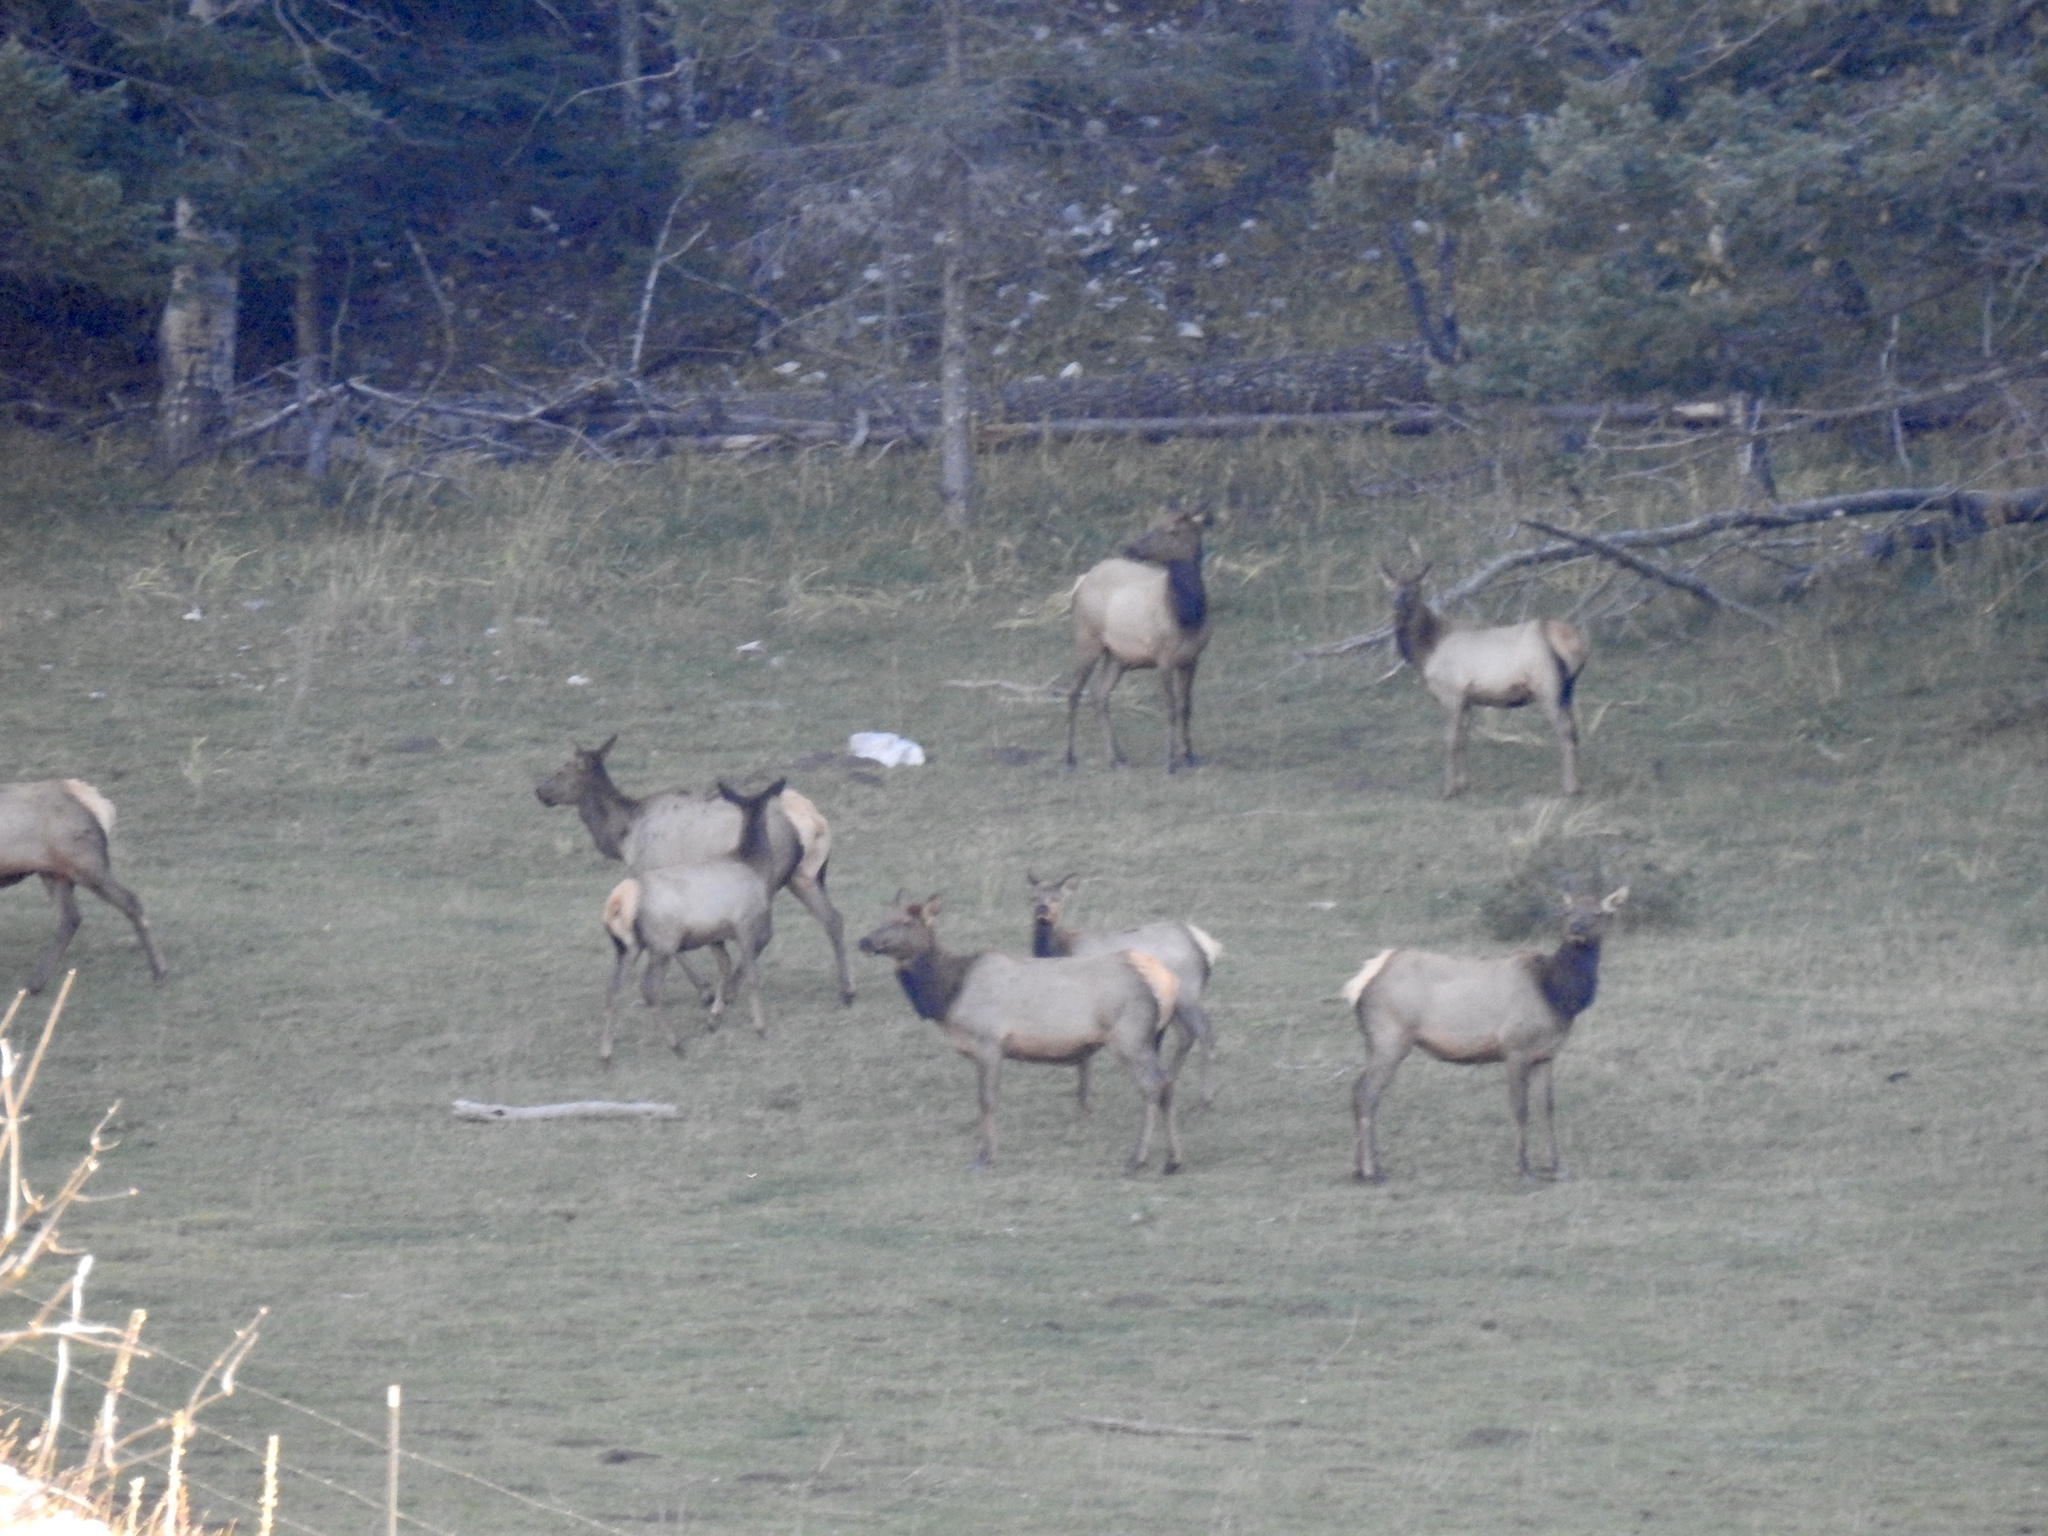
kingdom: Animalia
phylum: Chordata
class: Mammalia
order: Artiodactyla
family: Cervidae
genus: Cervus
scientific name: Cervus elaphus
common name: Red deer
